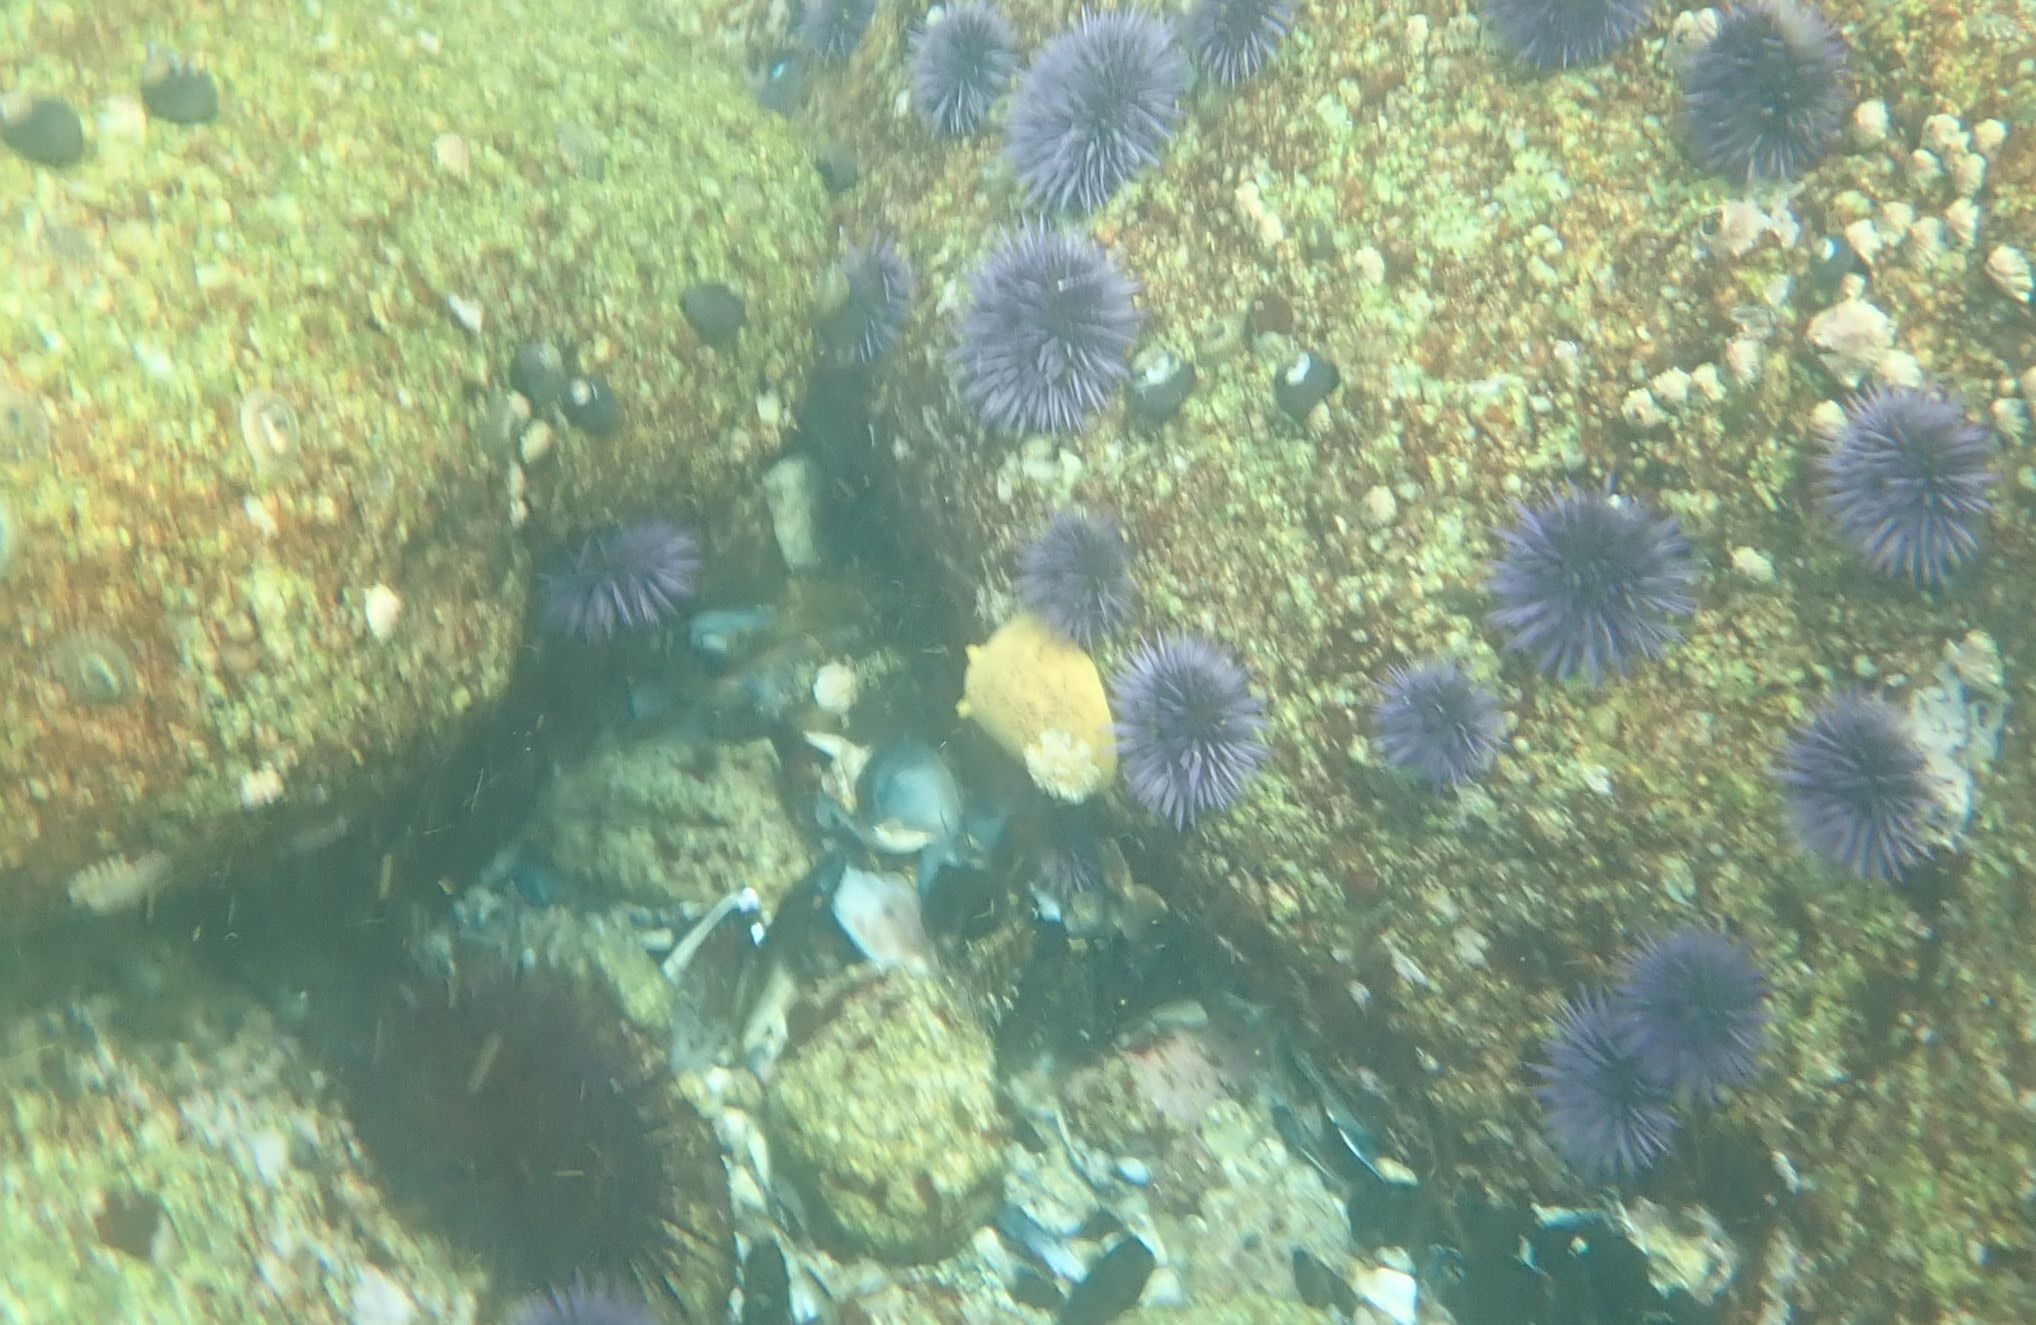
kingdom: Animalia
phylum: Mollusca
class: Gastropoda
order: Nudibranchia
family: Discodorididae
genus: Peltodoris
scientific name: Peltodoris nobilis
